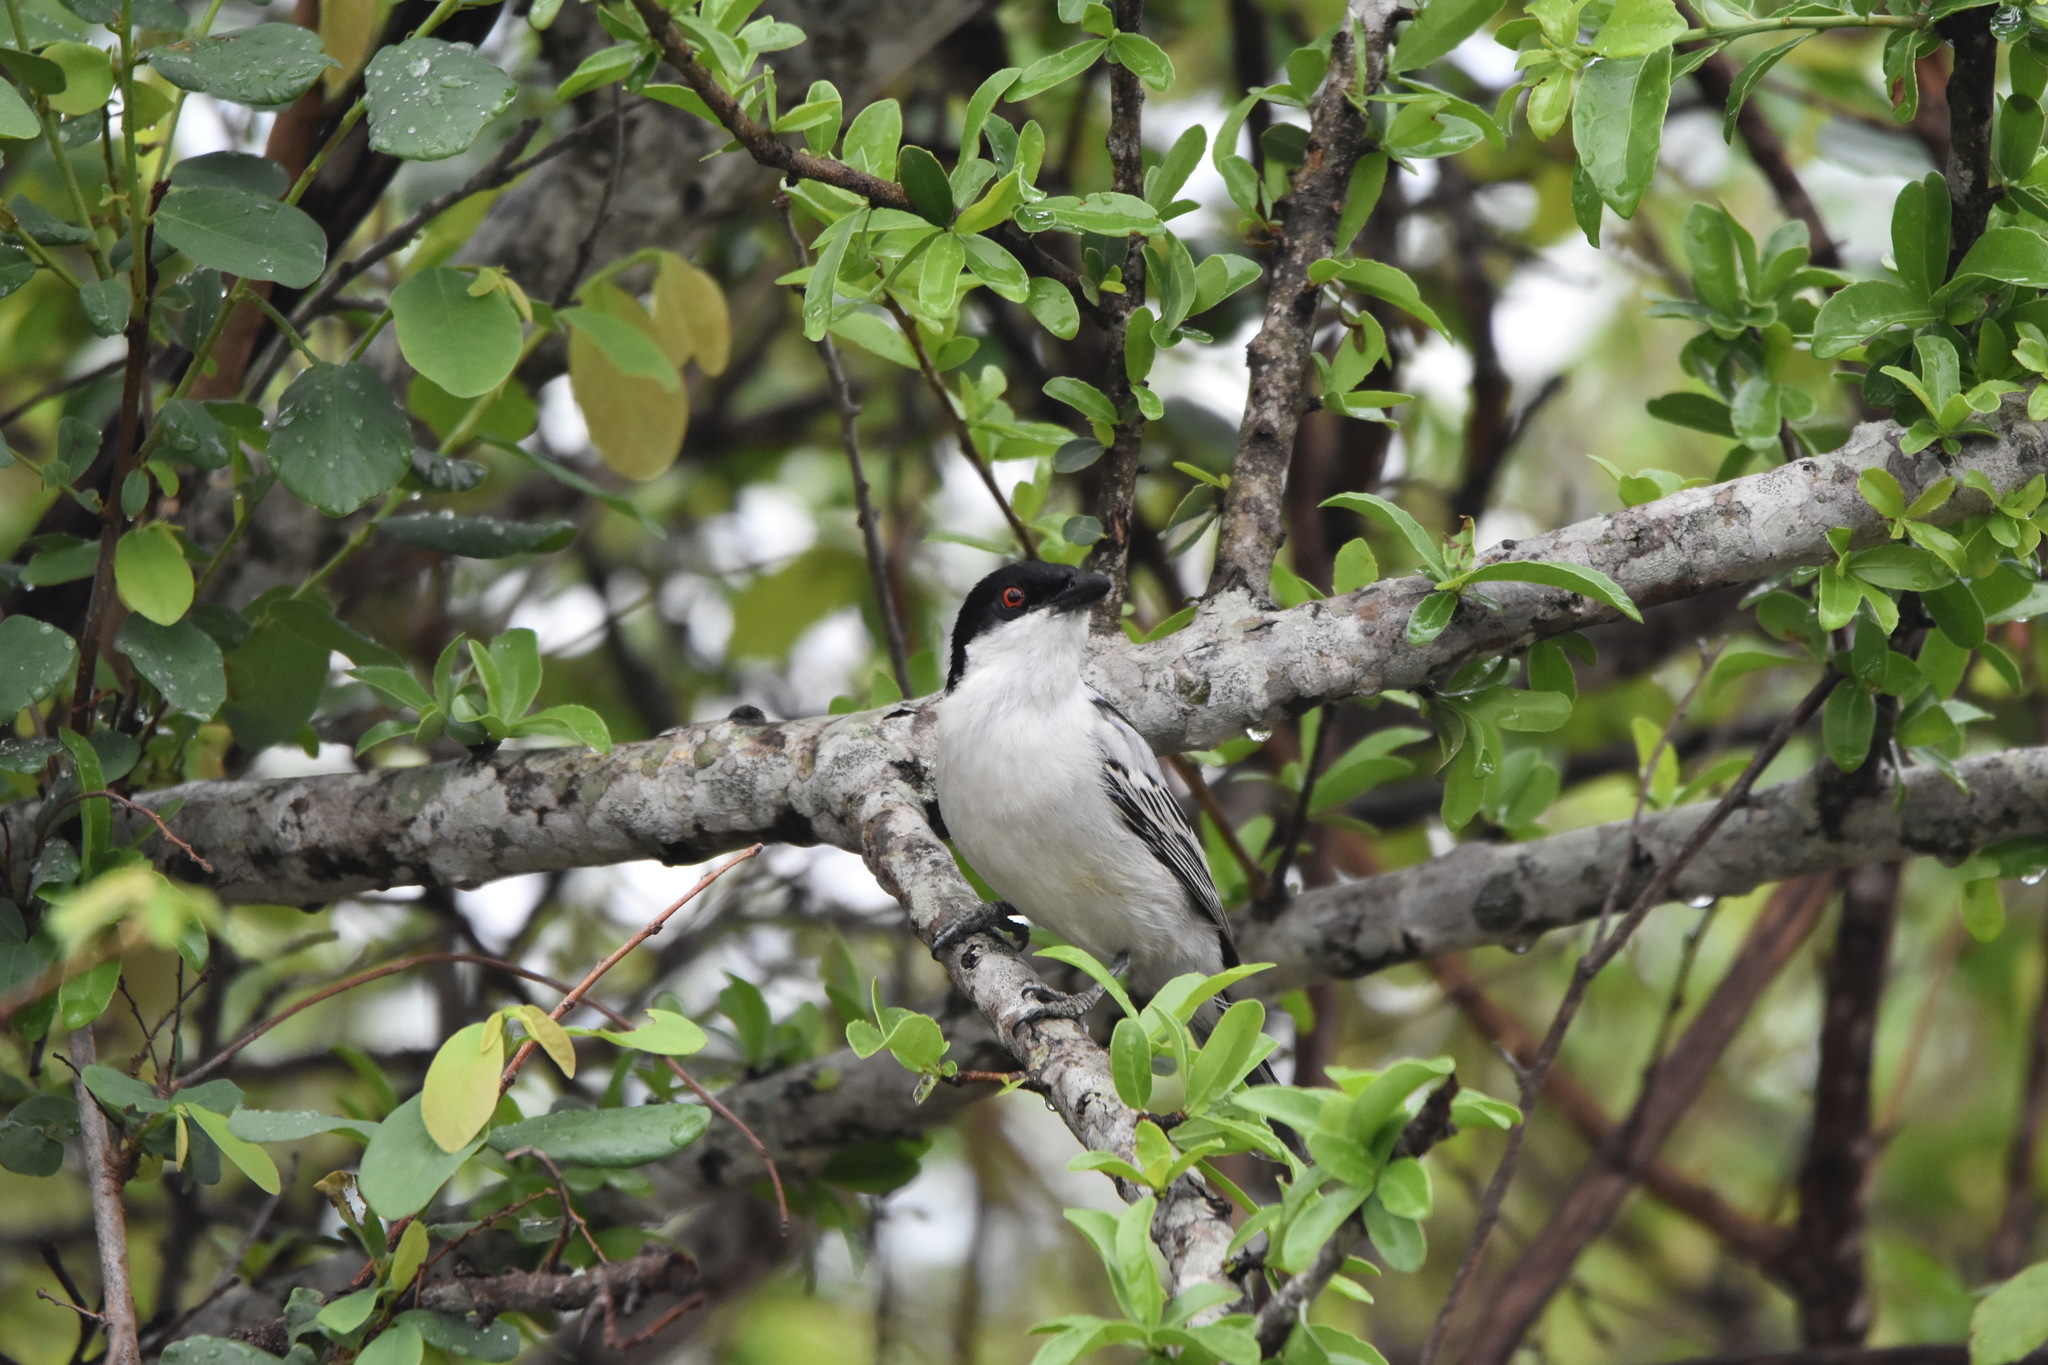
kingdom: Animalia
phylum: Chordata
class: Aves
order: Passeriformes
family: Malaconotidae
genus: Dryoscopus
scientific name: Dryoscopus cubla
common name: Black-backed puffback
